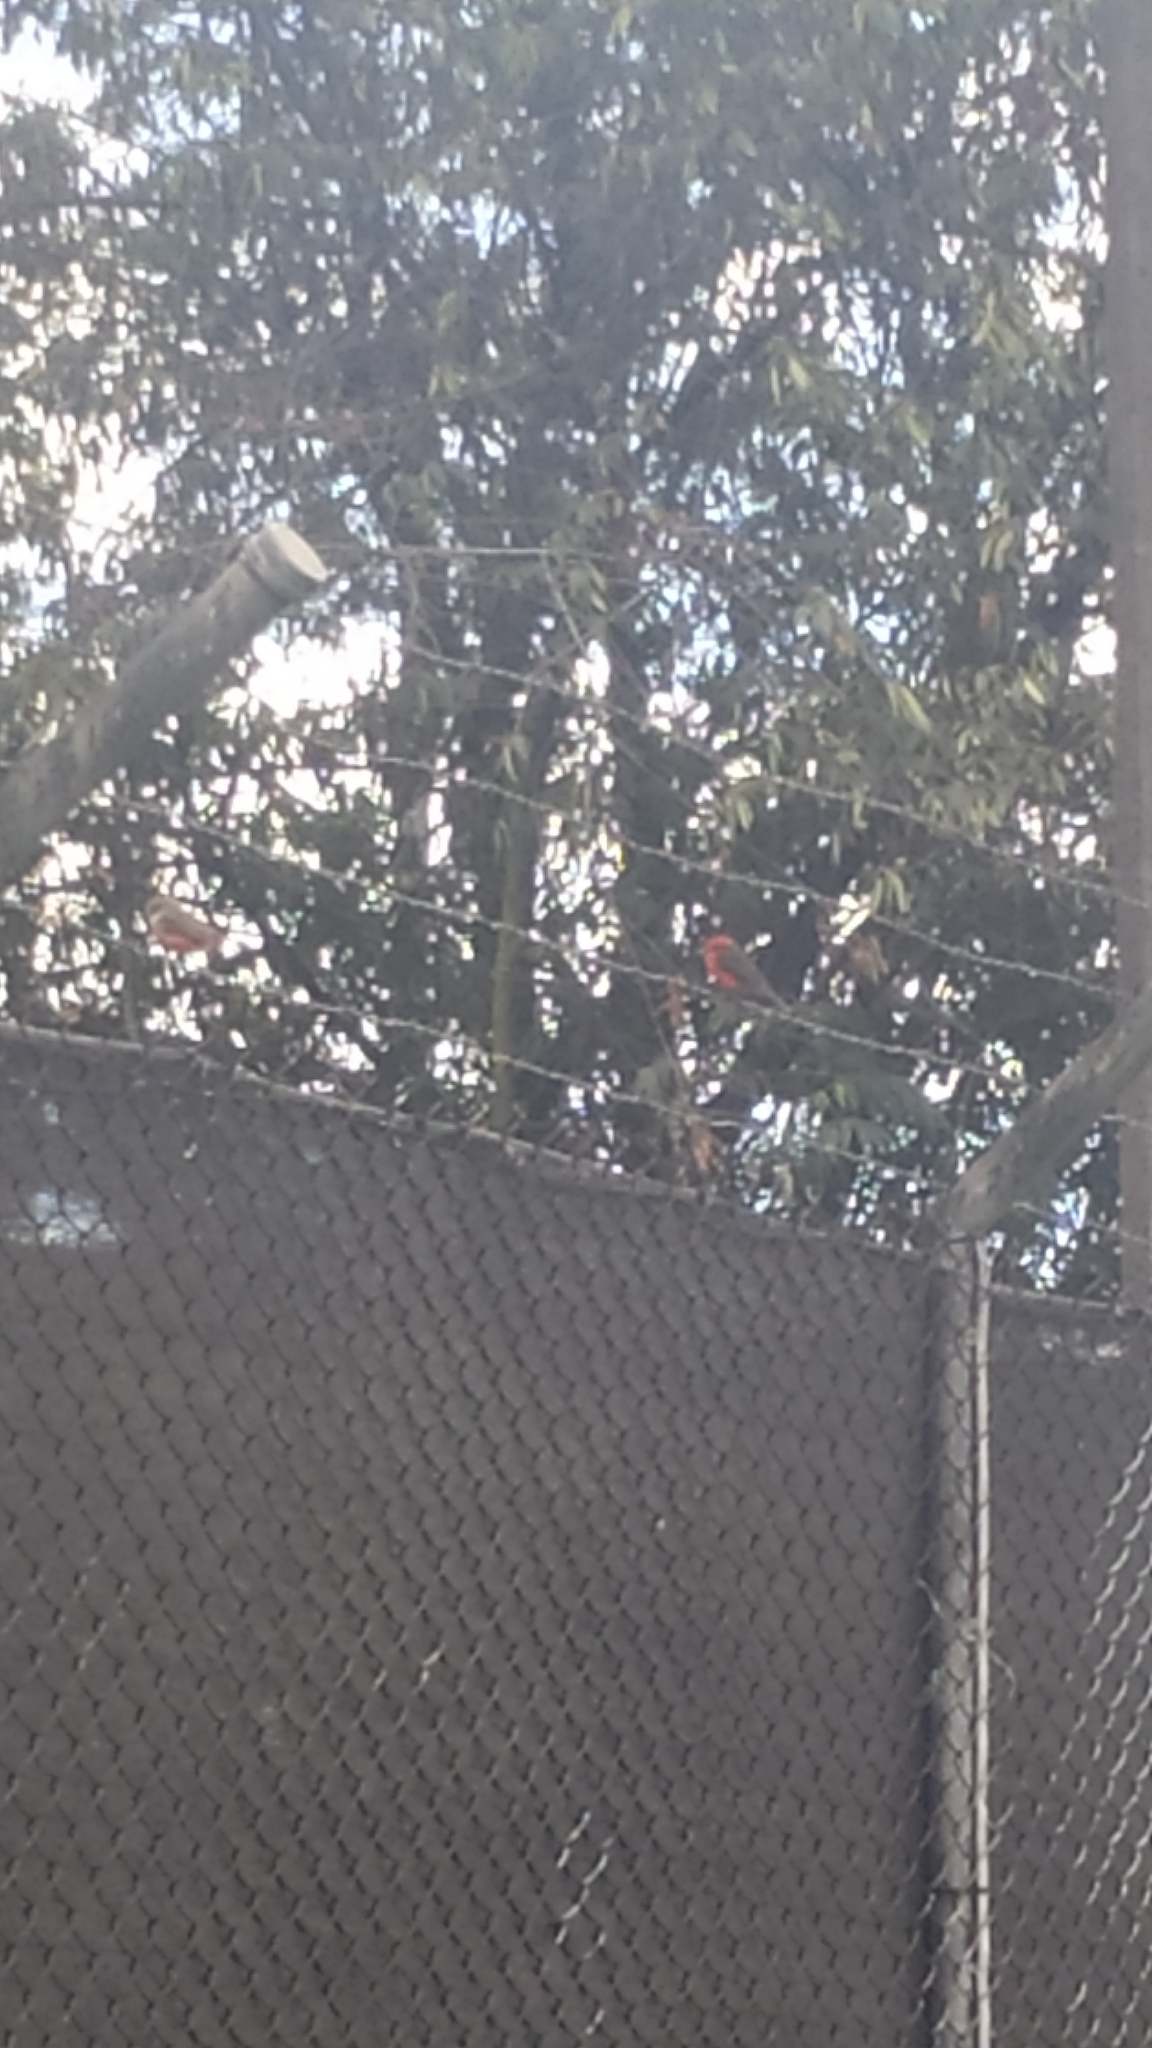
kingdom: Animalia
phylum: Chordata
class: Aves
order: Passeriformes
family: Tyrannidae
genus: Pyrocephalus
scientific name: Pyrocephalus rubinus
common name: Vermilion flycatcher
